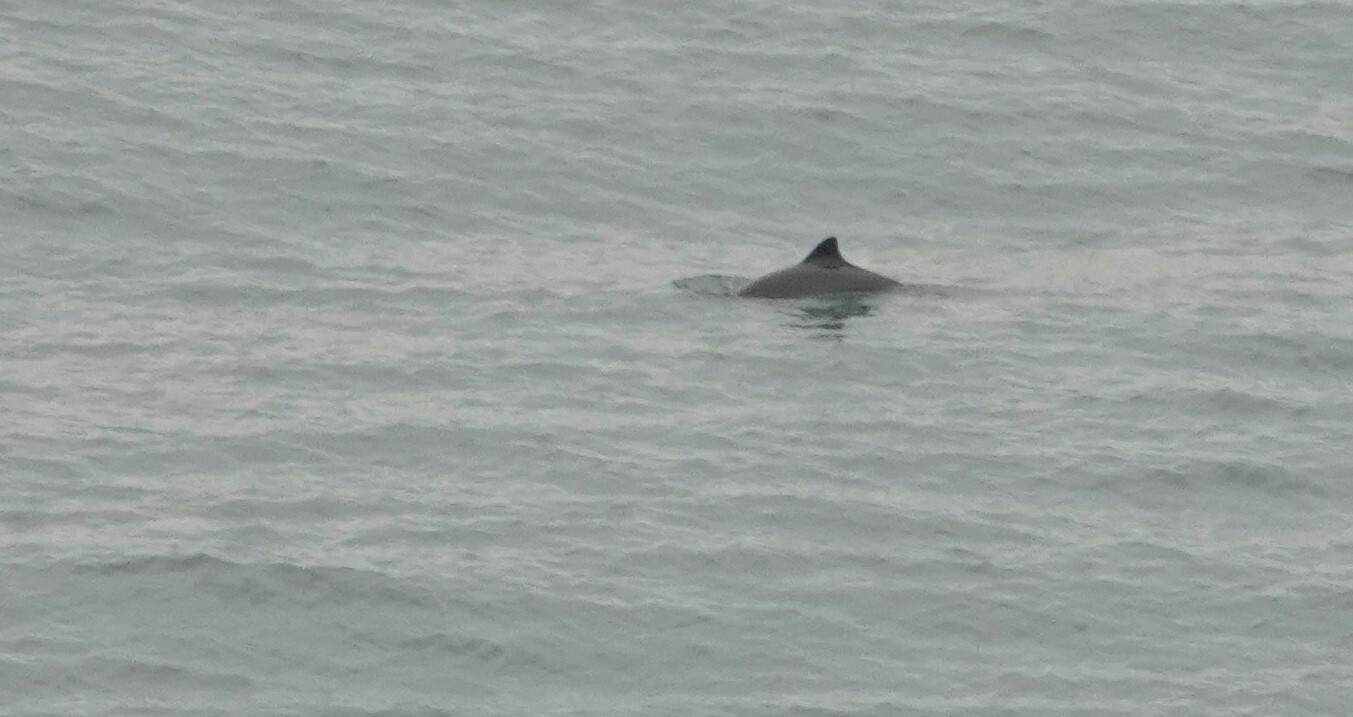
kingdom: Animalia
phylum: Chordata
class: Mammalia
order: Cetacea
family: Phocoenidae
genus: Phocoena
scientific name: Phocoena phocoena
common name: Harbor porpoise
